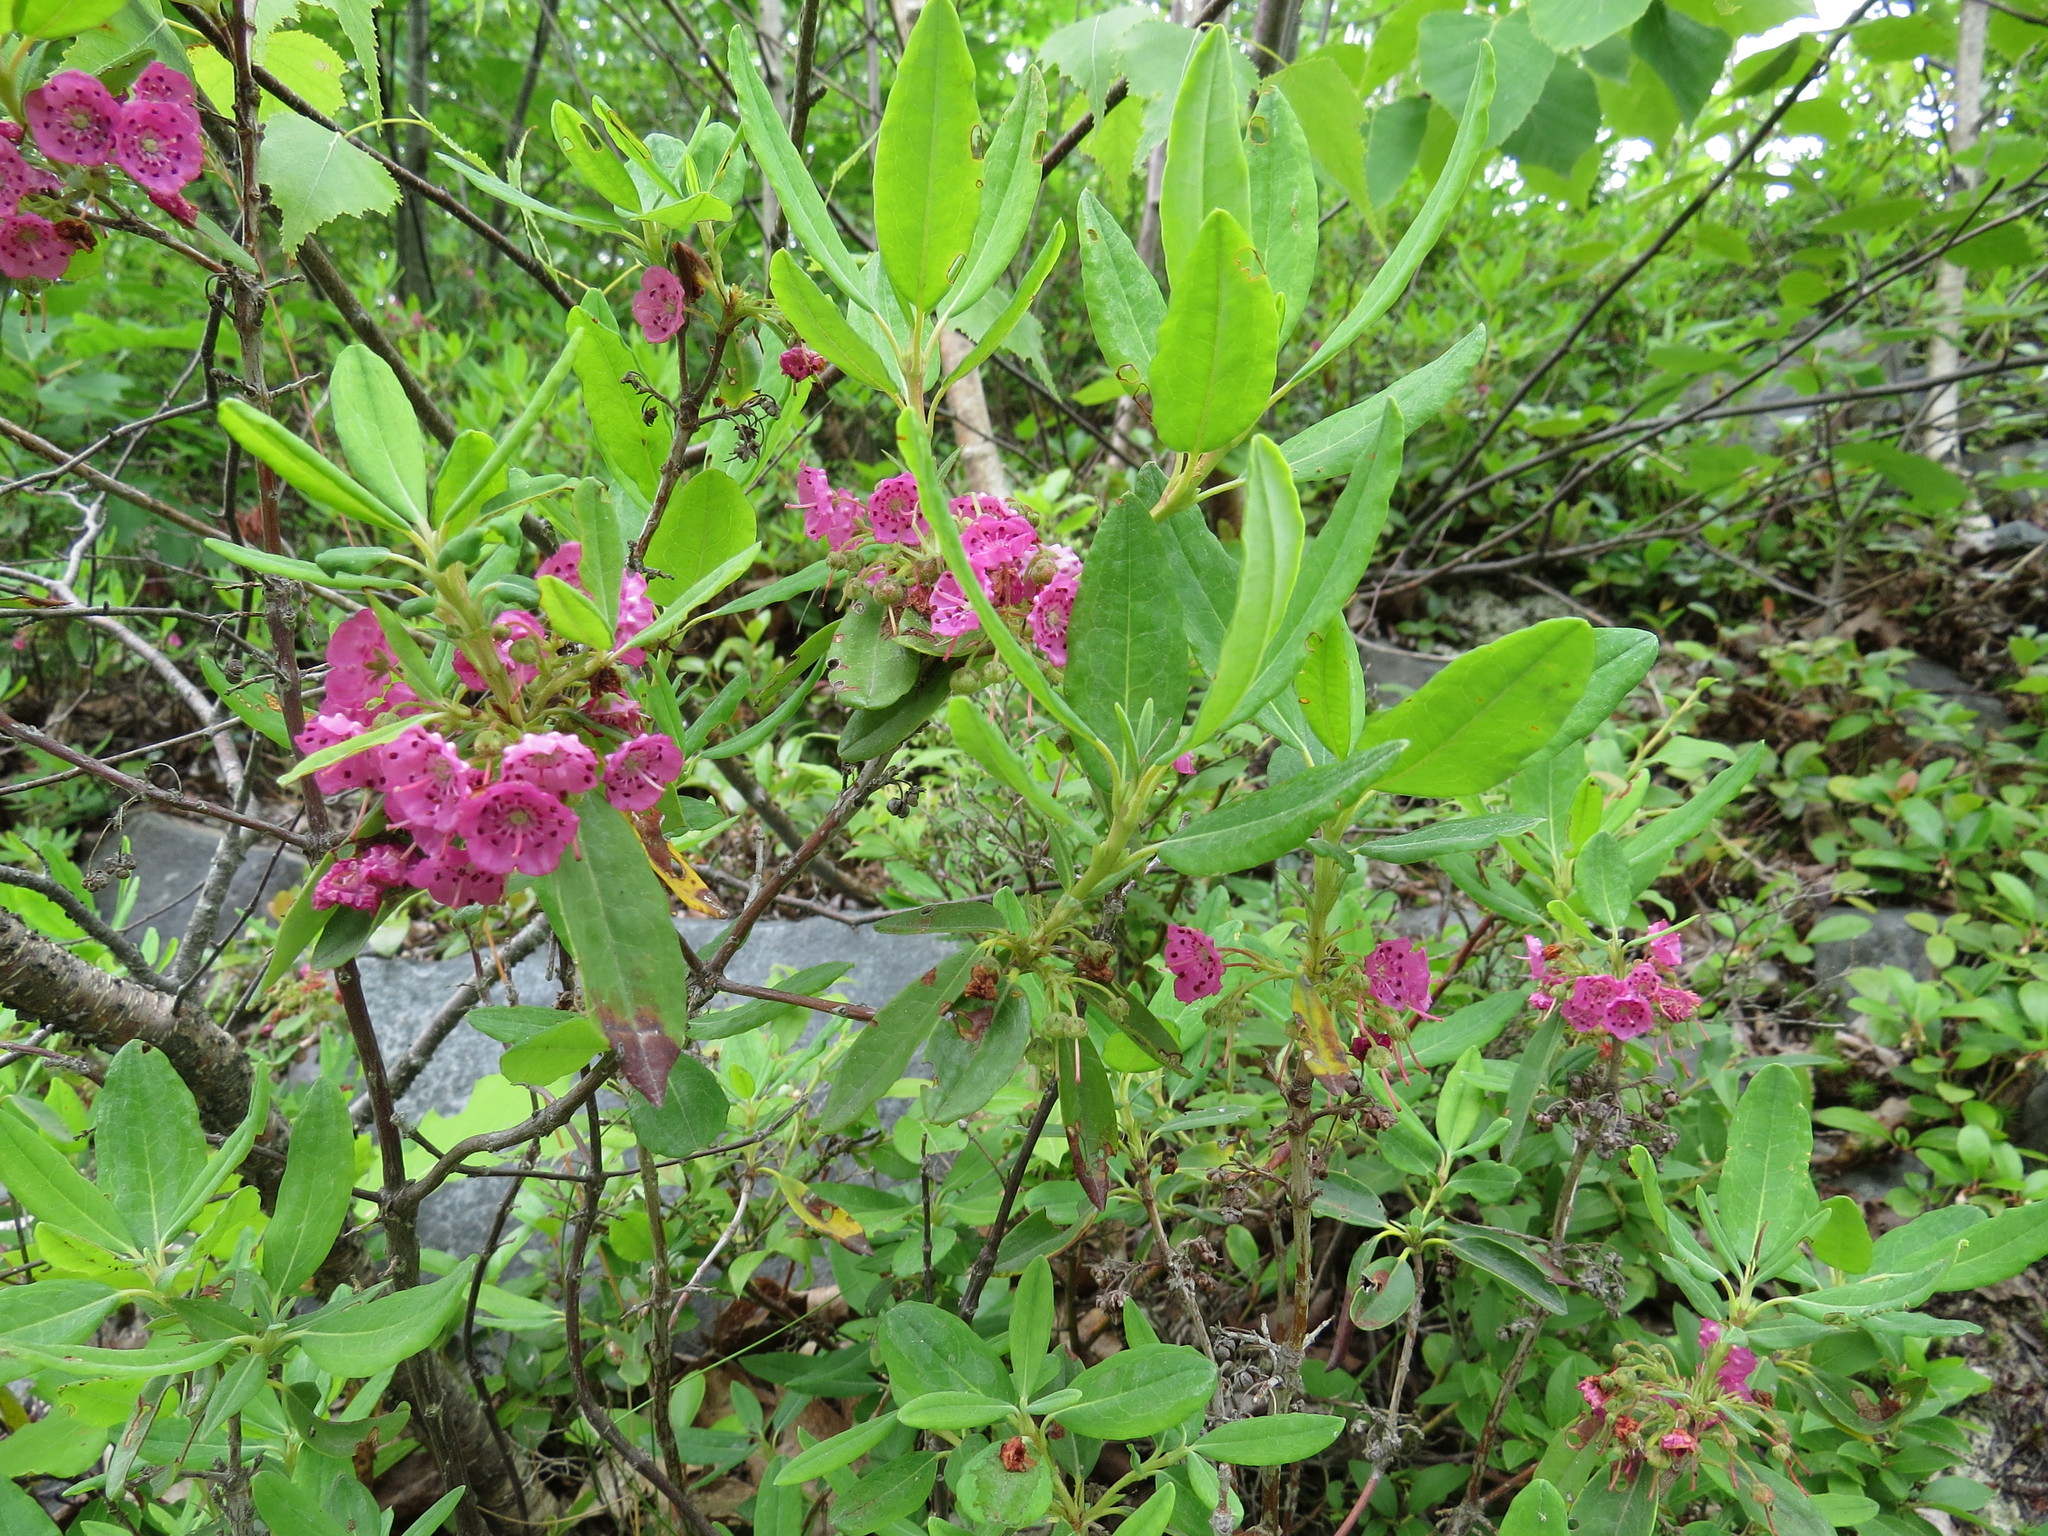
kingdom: Plantae
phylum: Tracheophyta
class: Magnoliopsida
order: Ericales
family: Ericaceae
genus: Kalmia
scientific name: Kalmia angustifolia
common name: Sheep-laurel
